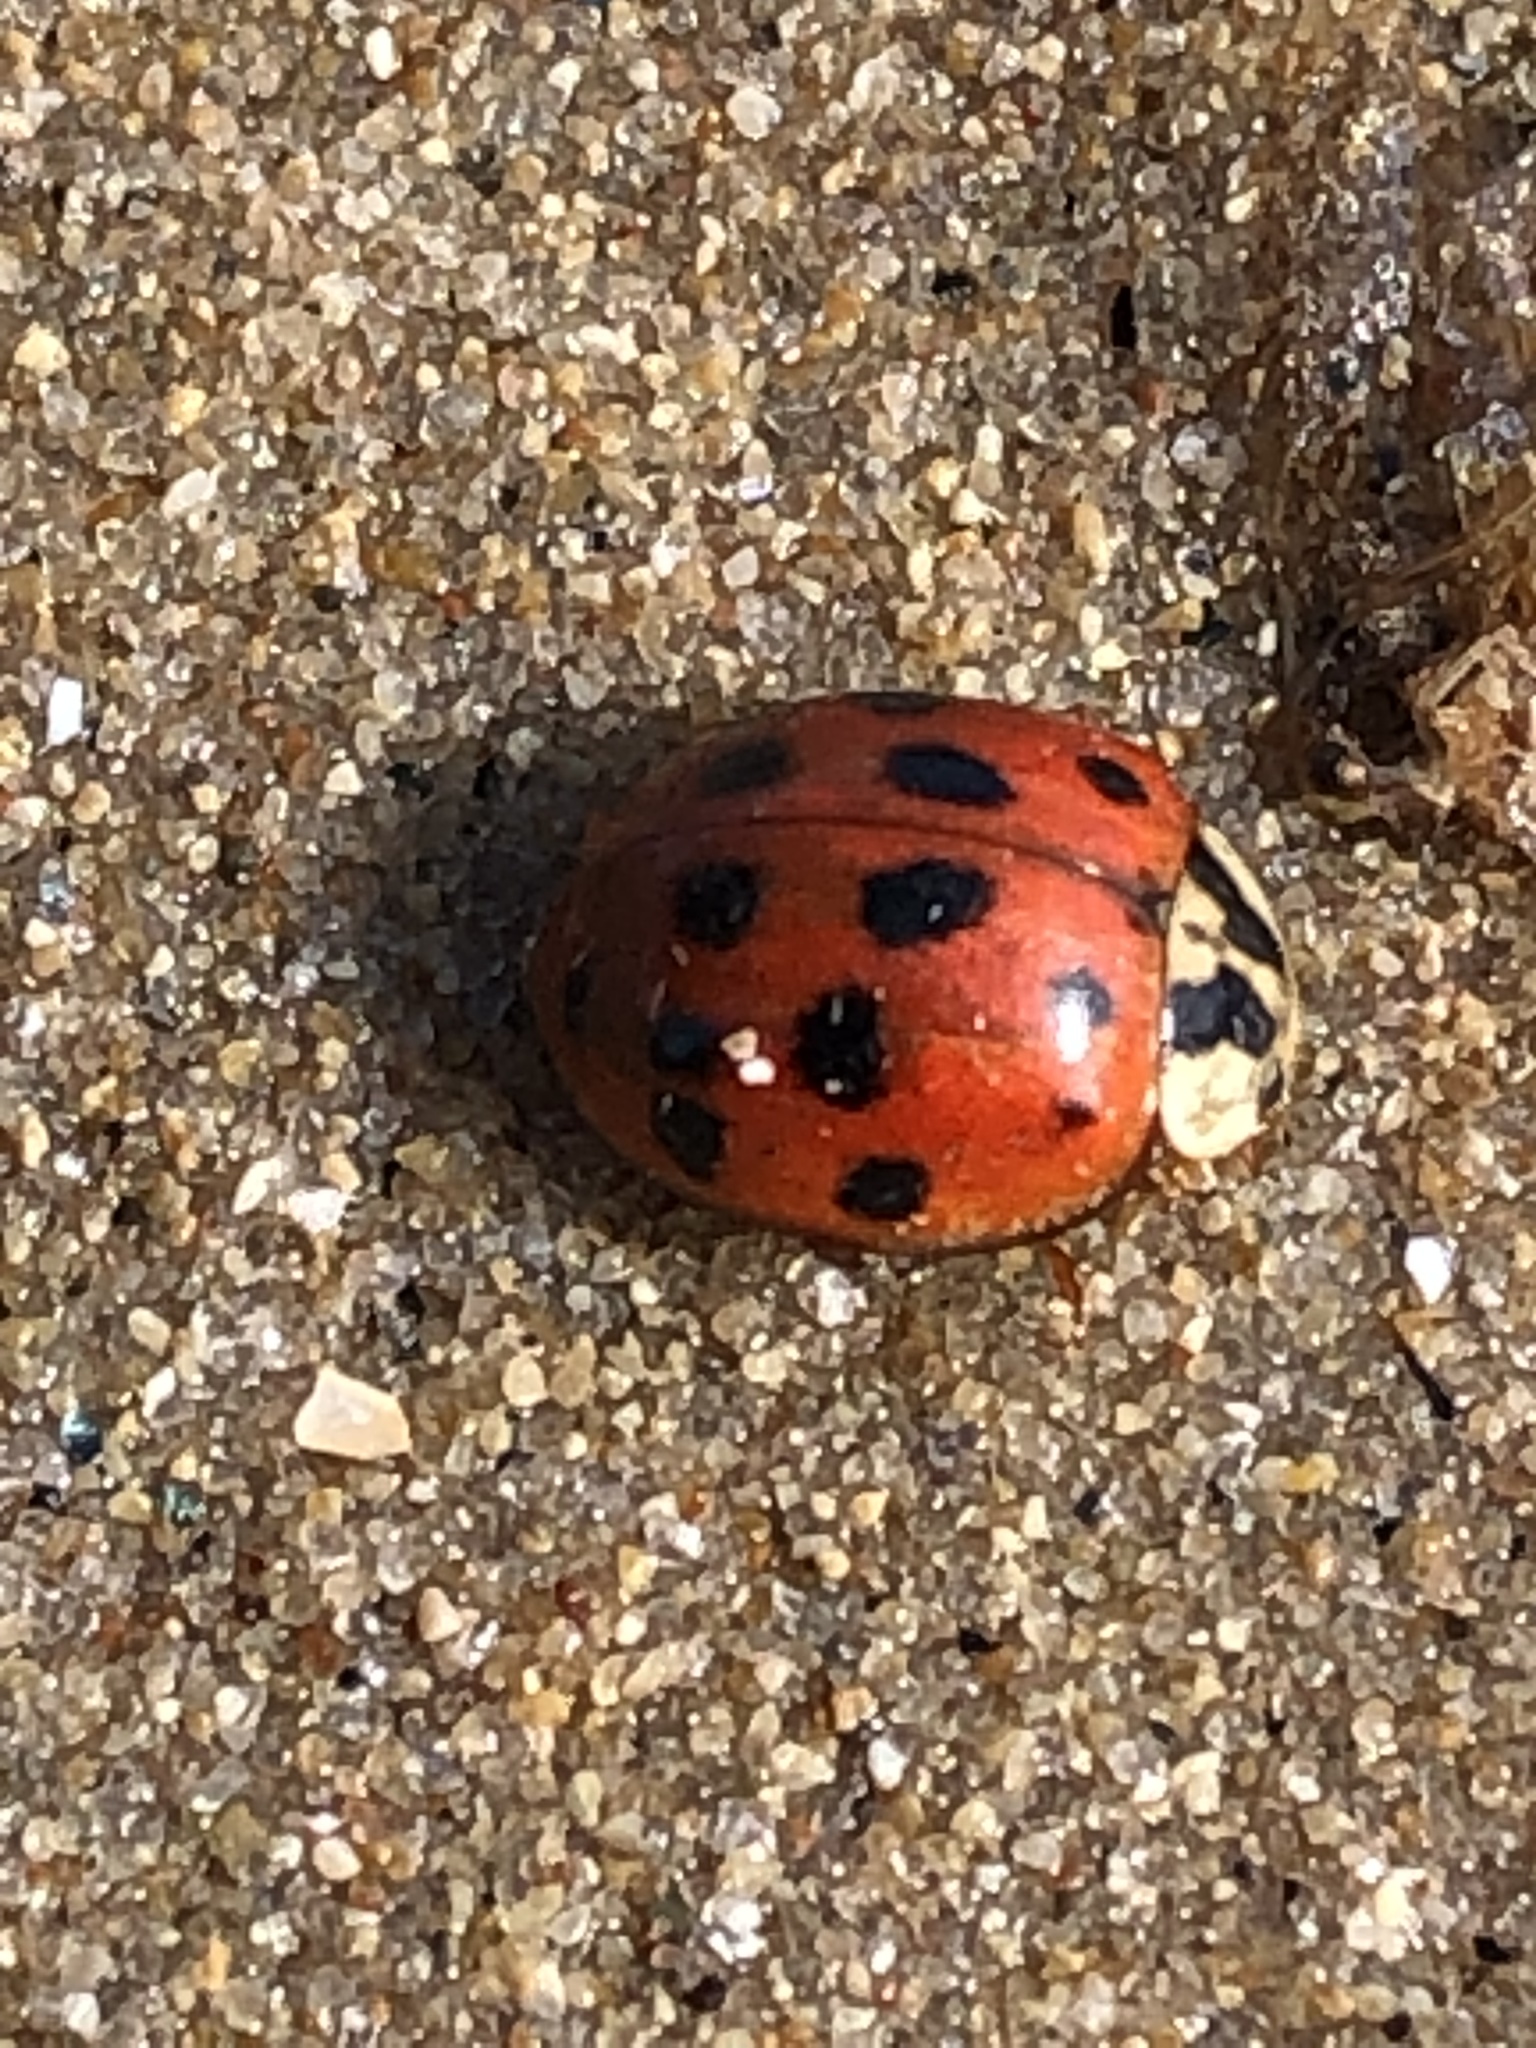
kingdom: Animalia
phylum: Arthropoda
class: Insecta
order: Coleoptera
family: Coccinellidae
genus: Harmonia
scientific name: Harmonia axyridis
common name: Harlequin ladybird
